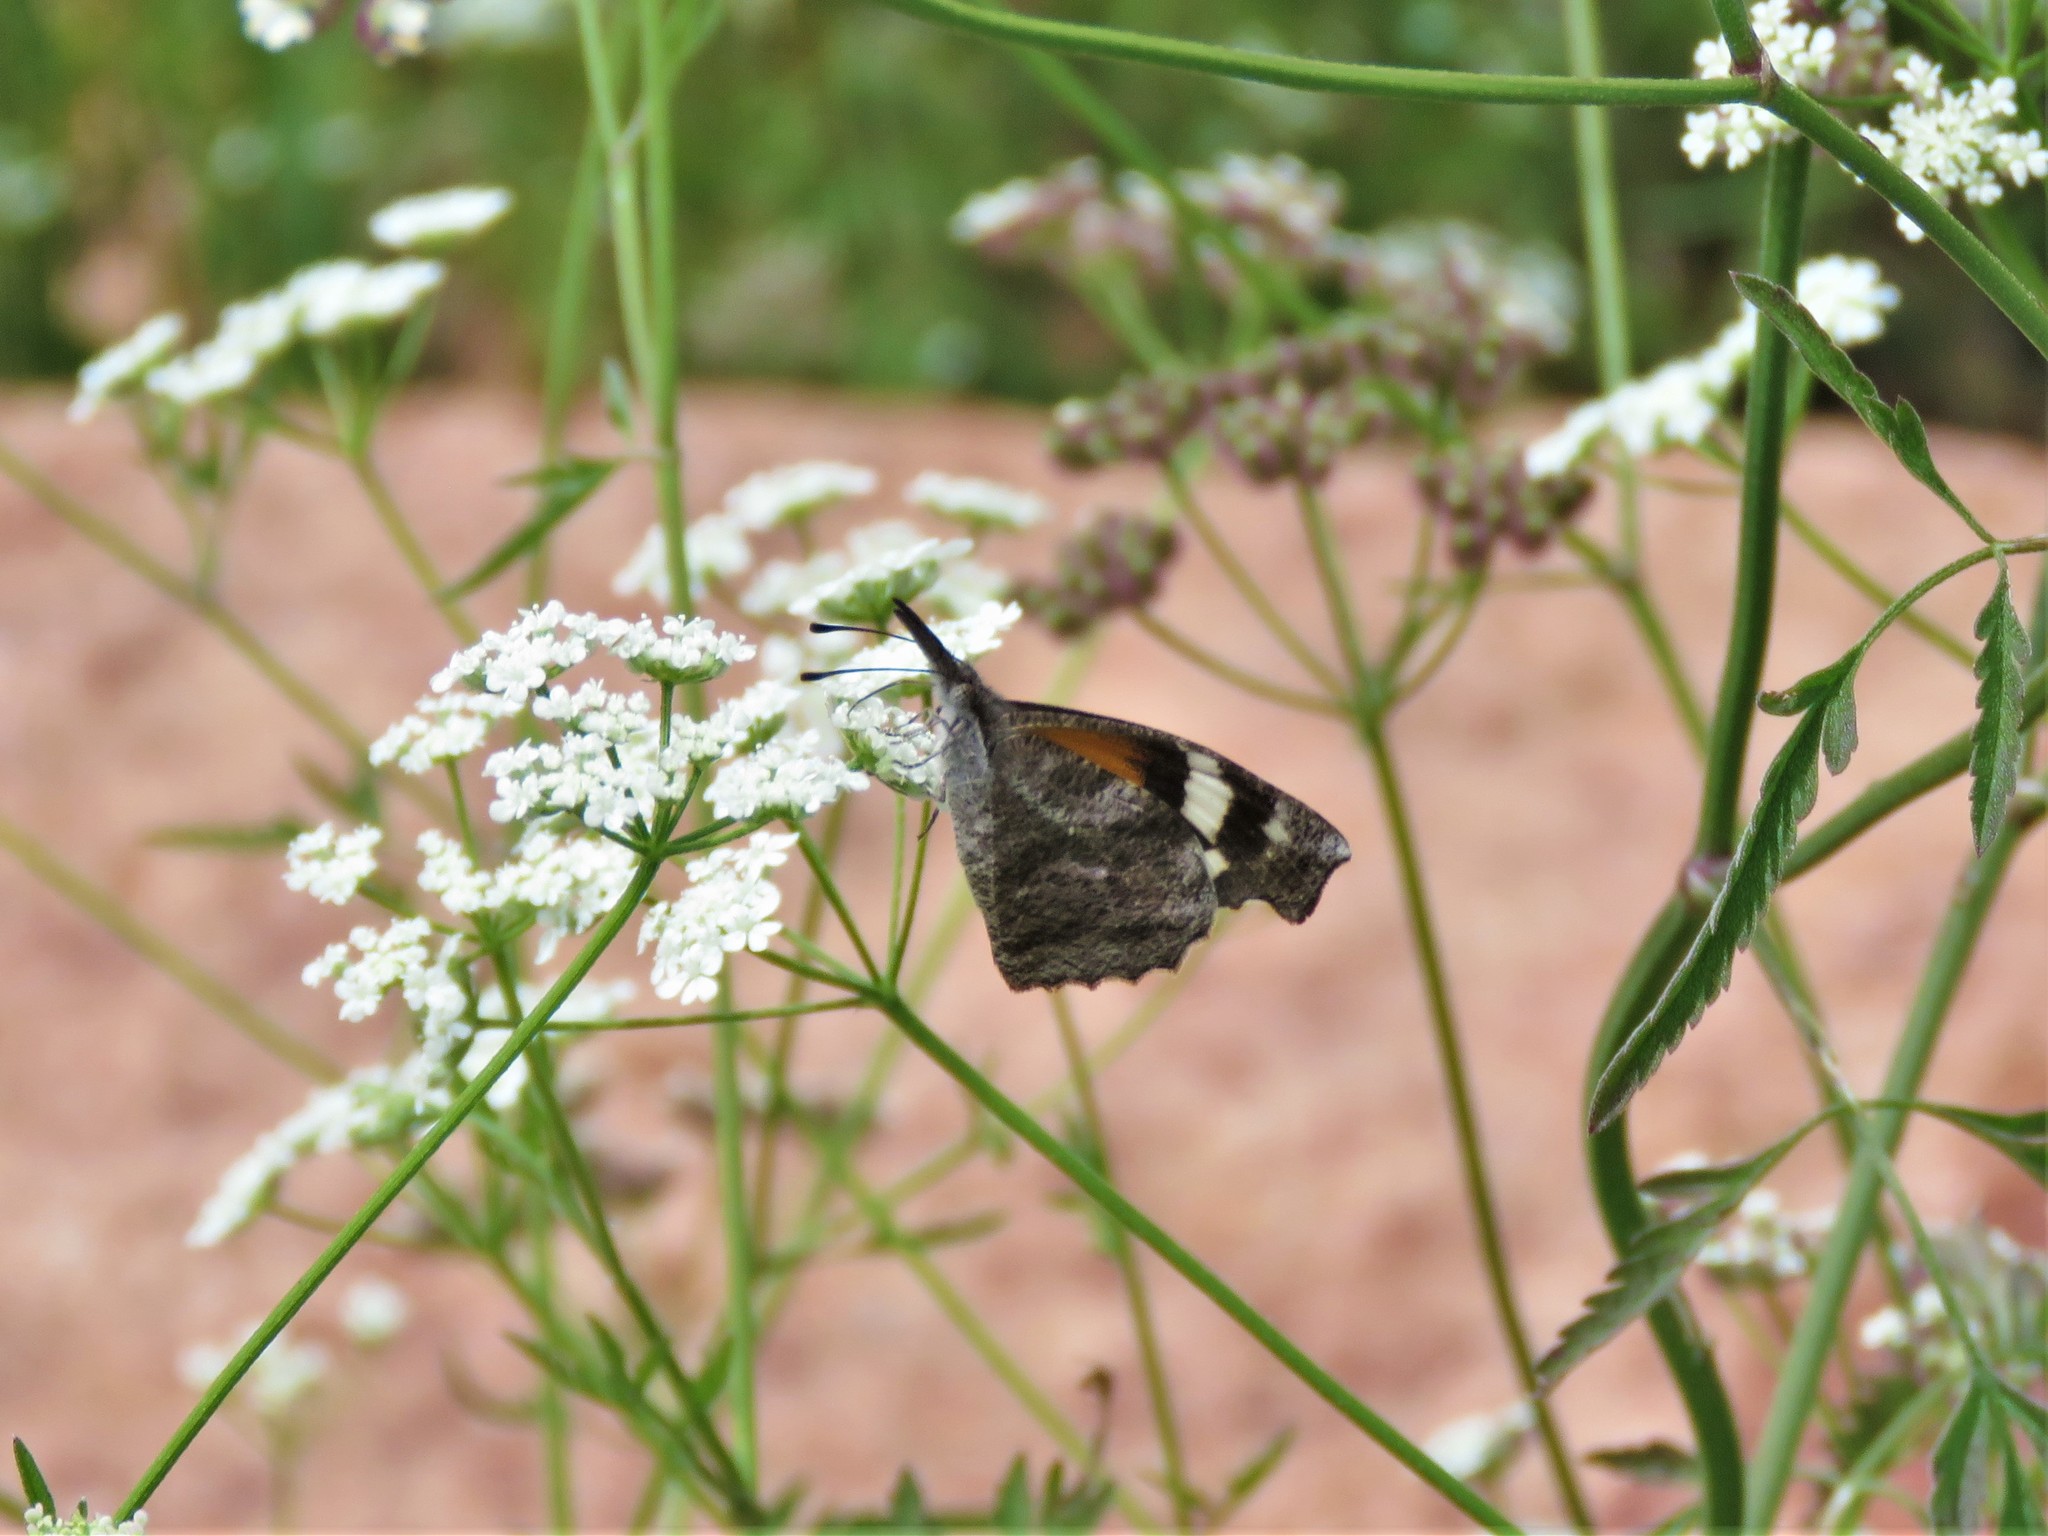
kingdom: Animalia
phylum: Arthropoda
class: Insecta
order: Lepidoptera
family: Nymphalidae
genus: Libytheana
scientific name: Libytheana carinenta
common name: American snout
